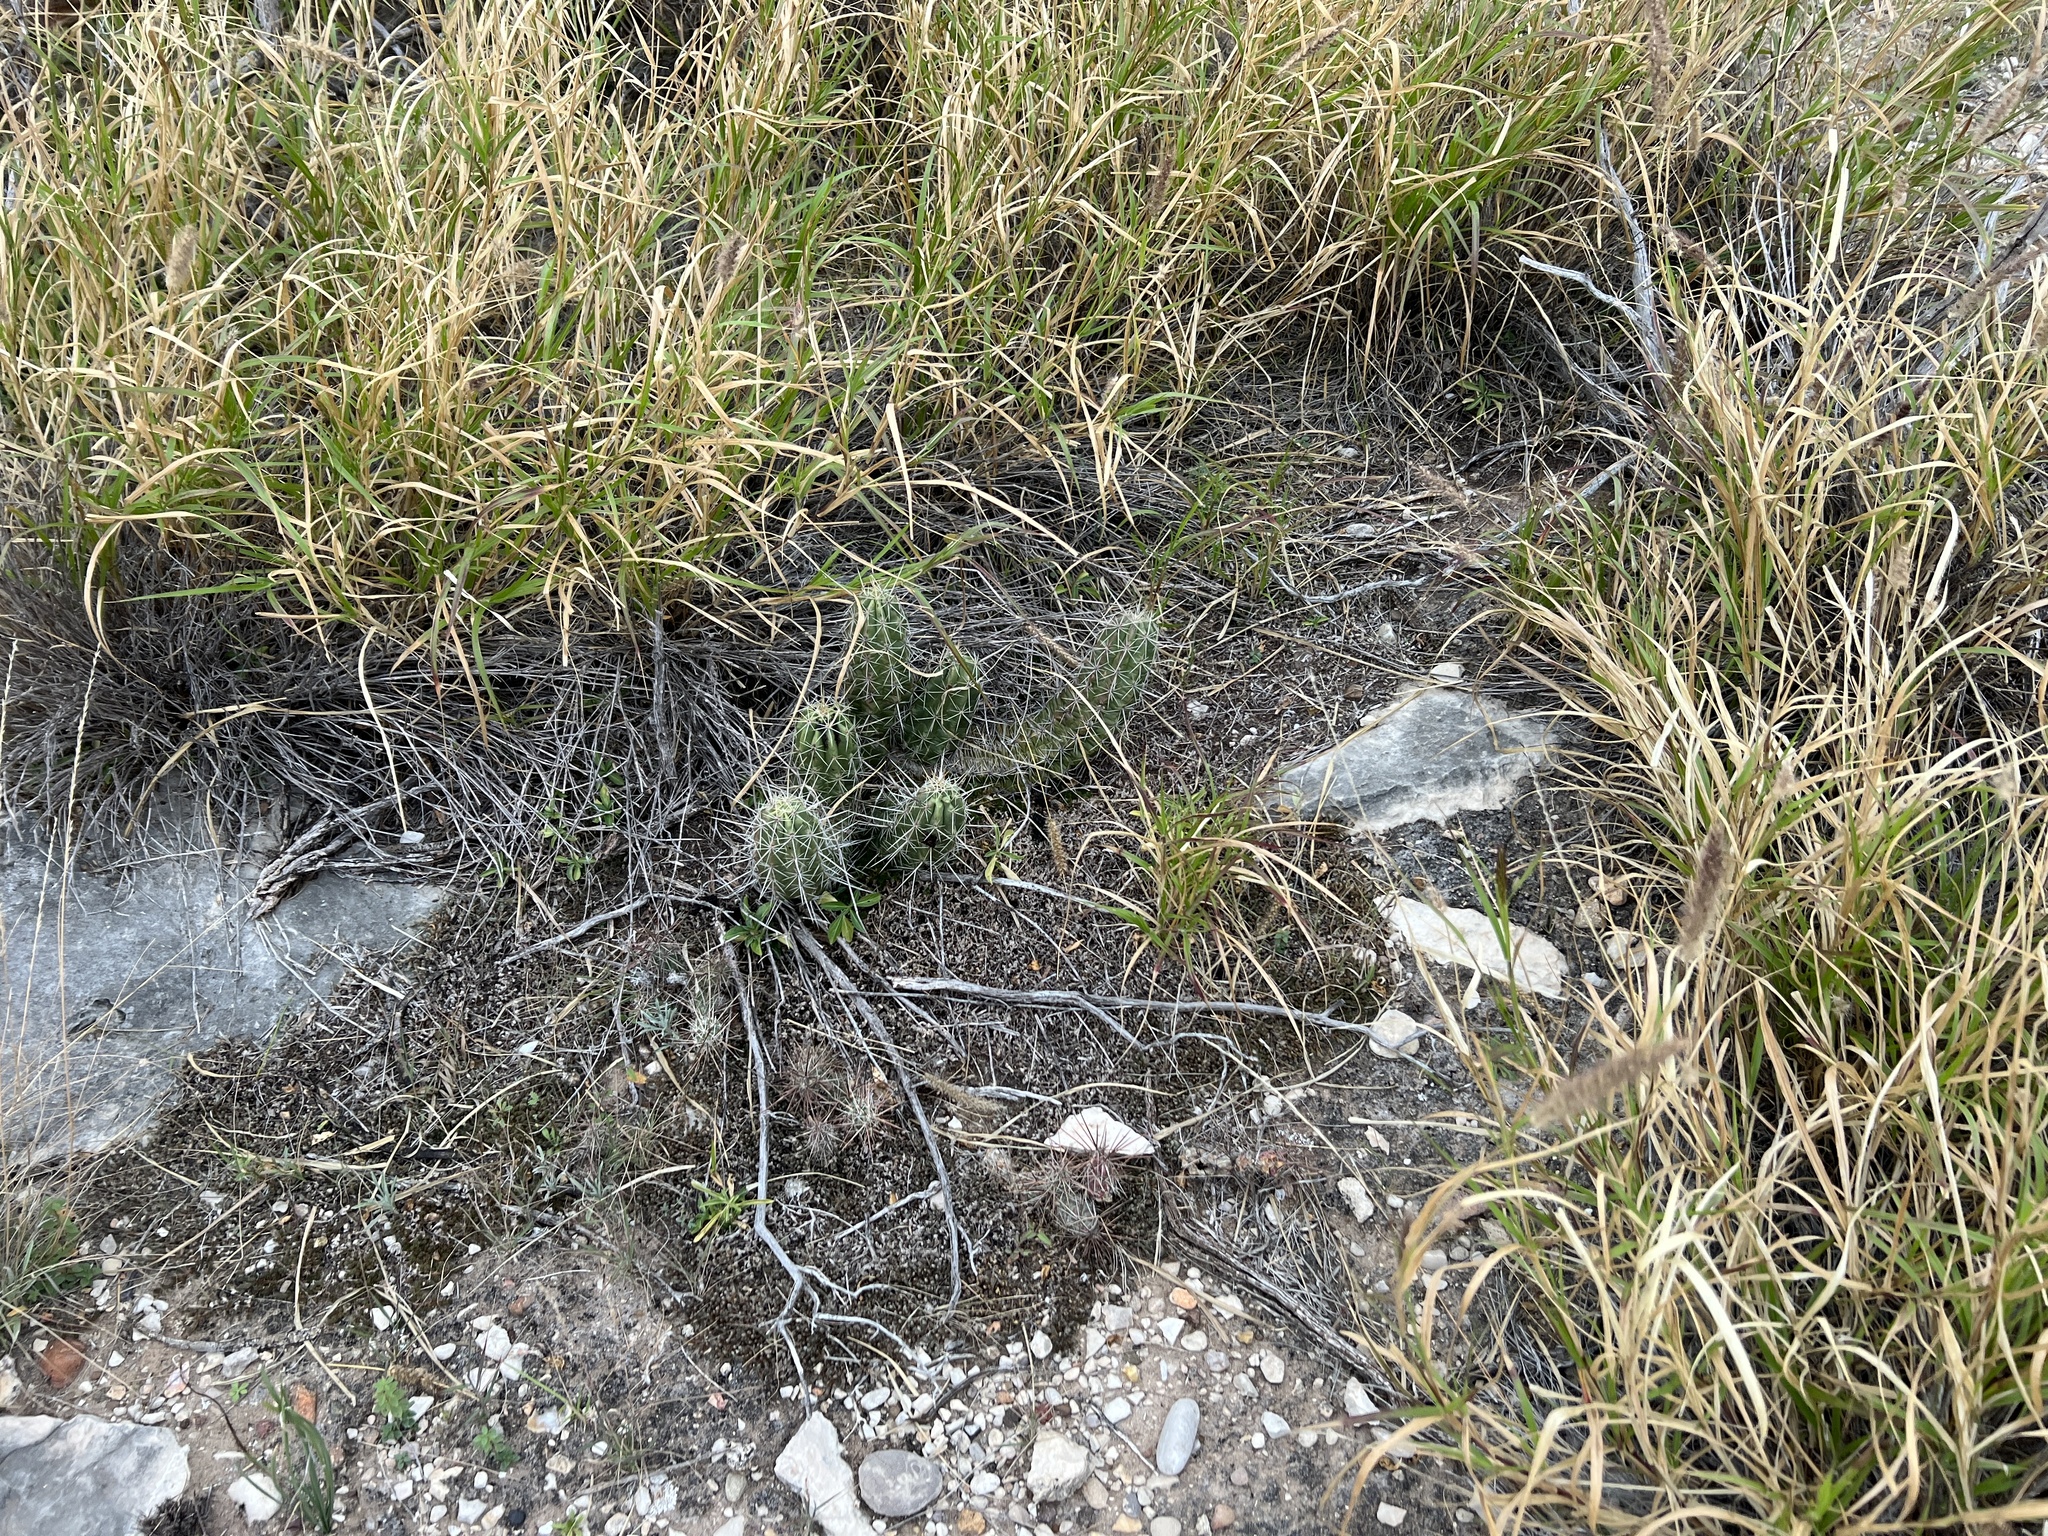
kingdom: Plantae
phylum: Tracheophyta
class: Magnoliopsida
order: Caryophyllales
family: Cactaceae
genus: Echinocereus
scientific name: Echinocereus enneacanthus
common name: Pitaya
